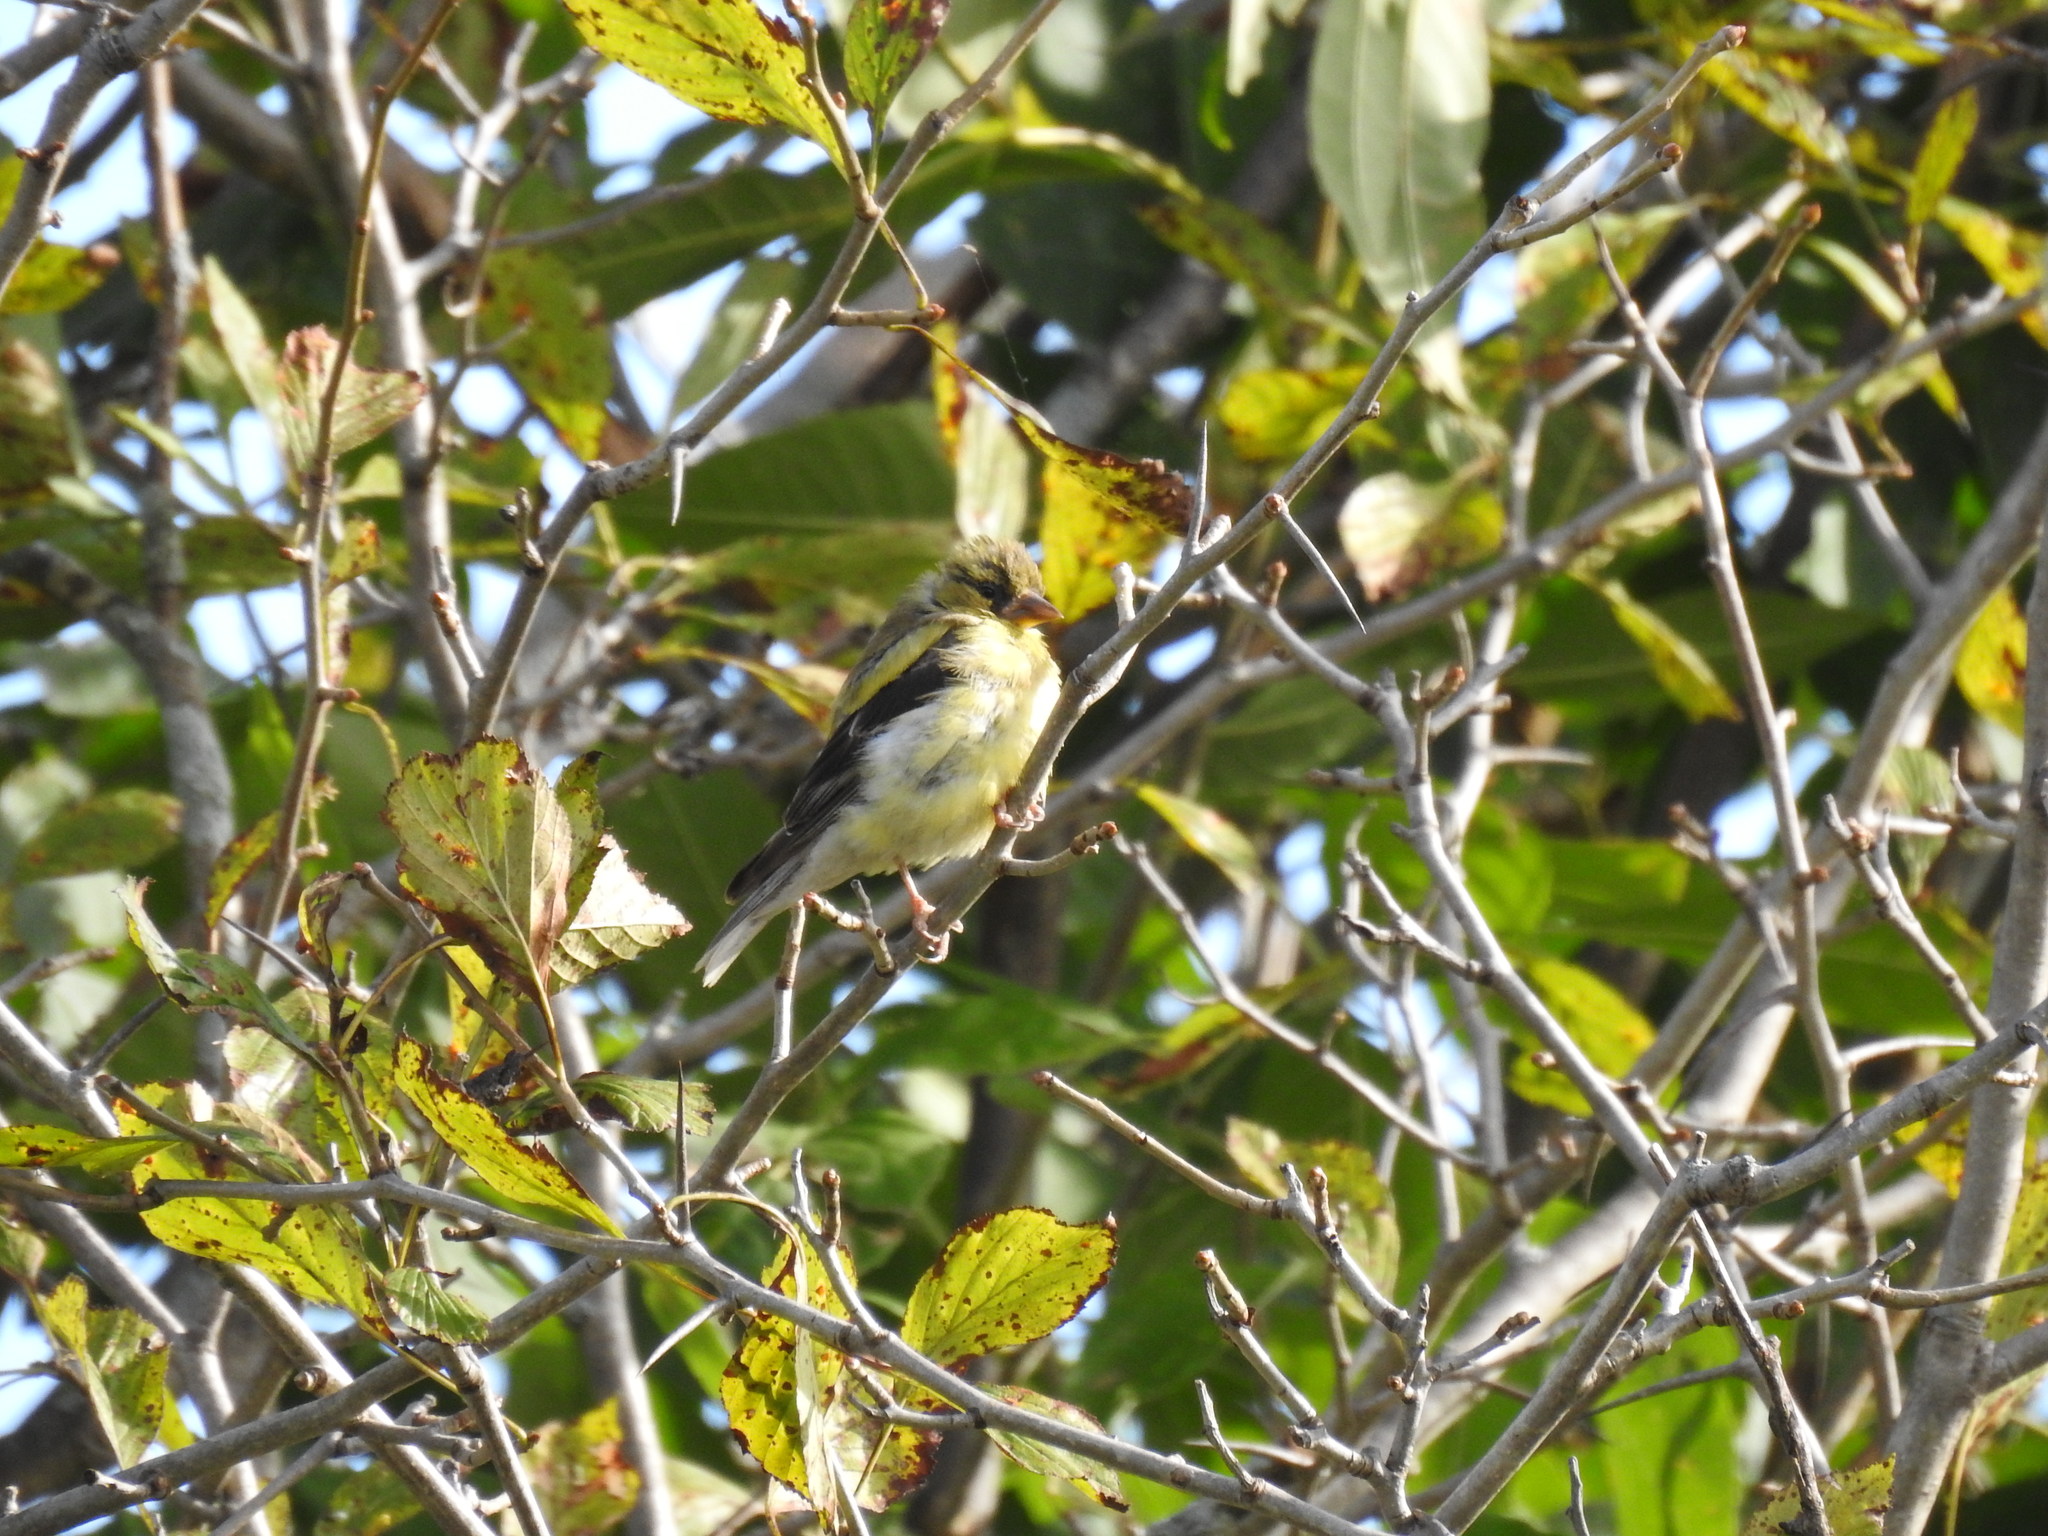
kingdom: Animalia
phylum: Chordata
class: Aves
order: Passeriformes
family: Fringillidae
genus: Spinus
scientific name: Spinus tristis
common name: American goldfinch
